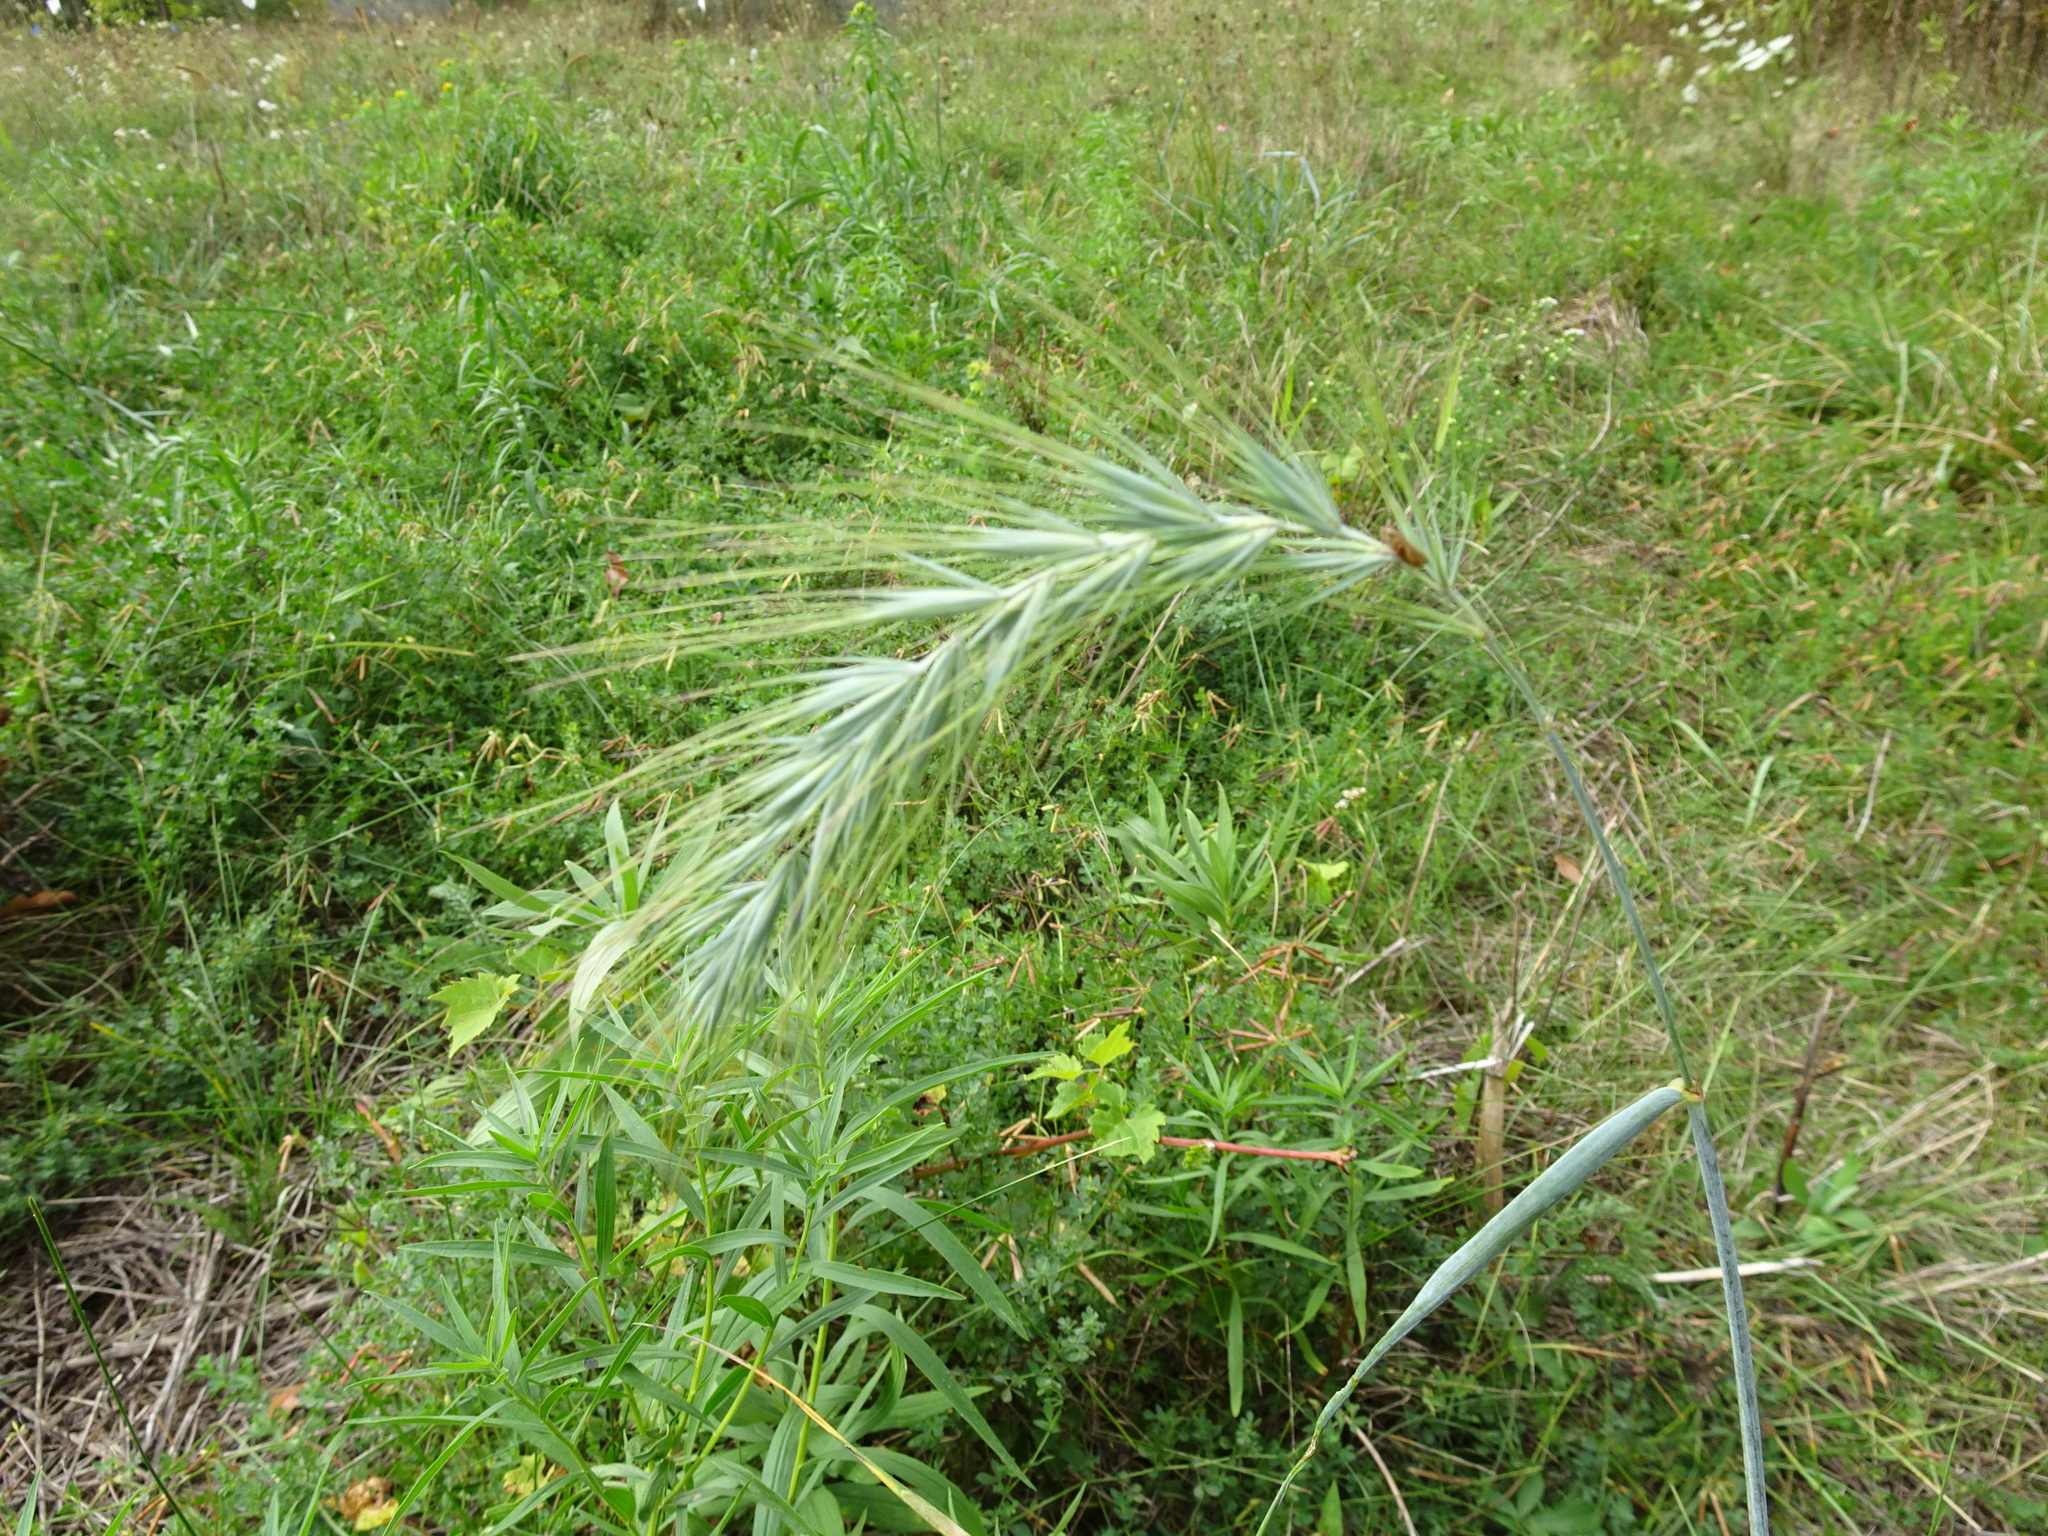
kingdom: Plantae
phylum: Tracheophyta
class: Liliopsida
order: Poales
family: Poaceae
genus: Elymus
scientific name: Elymus canadensis
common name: Canada wild rye
